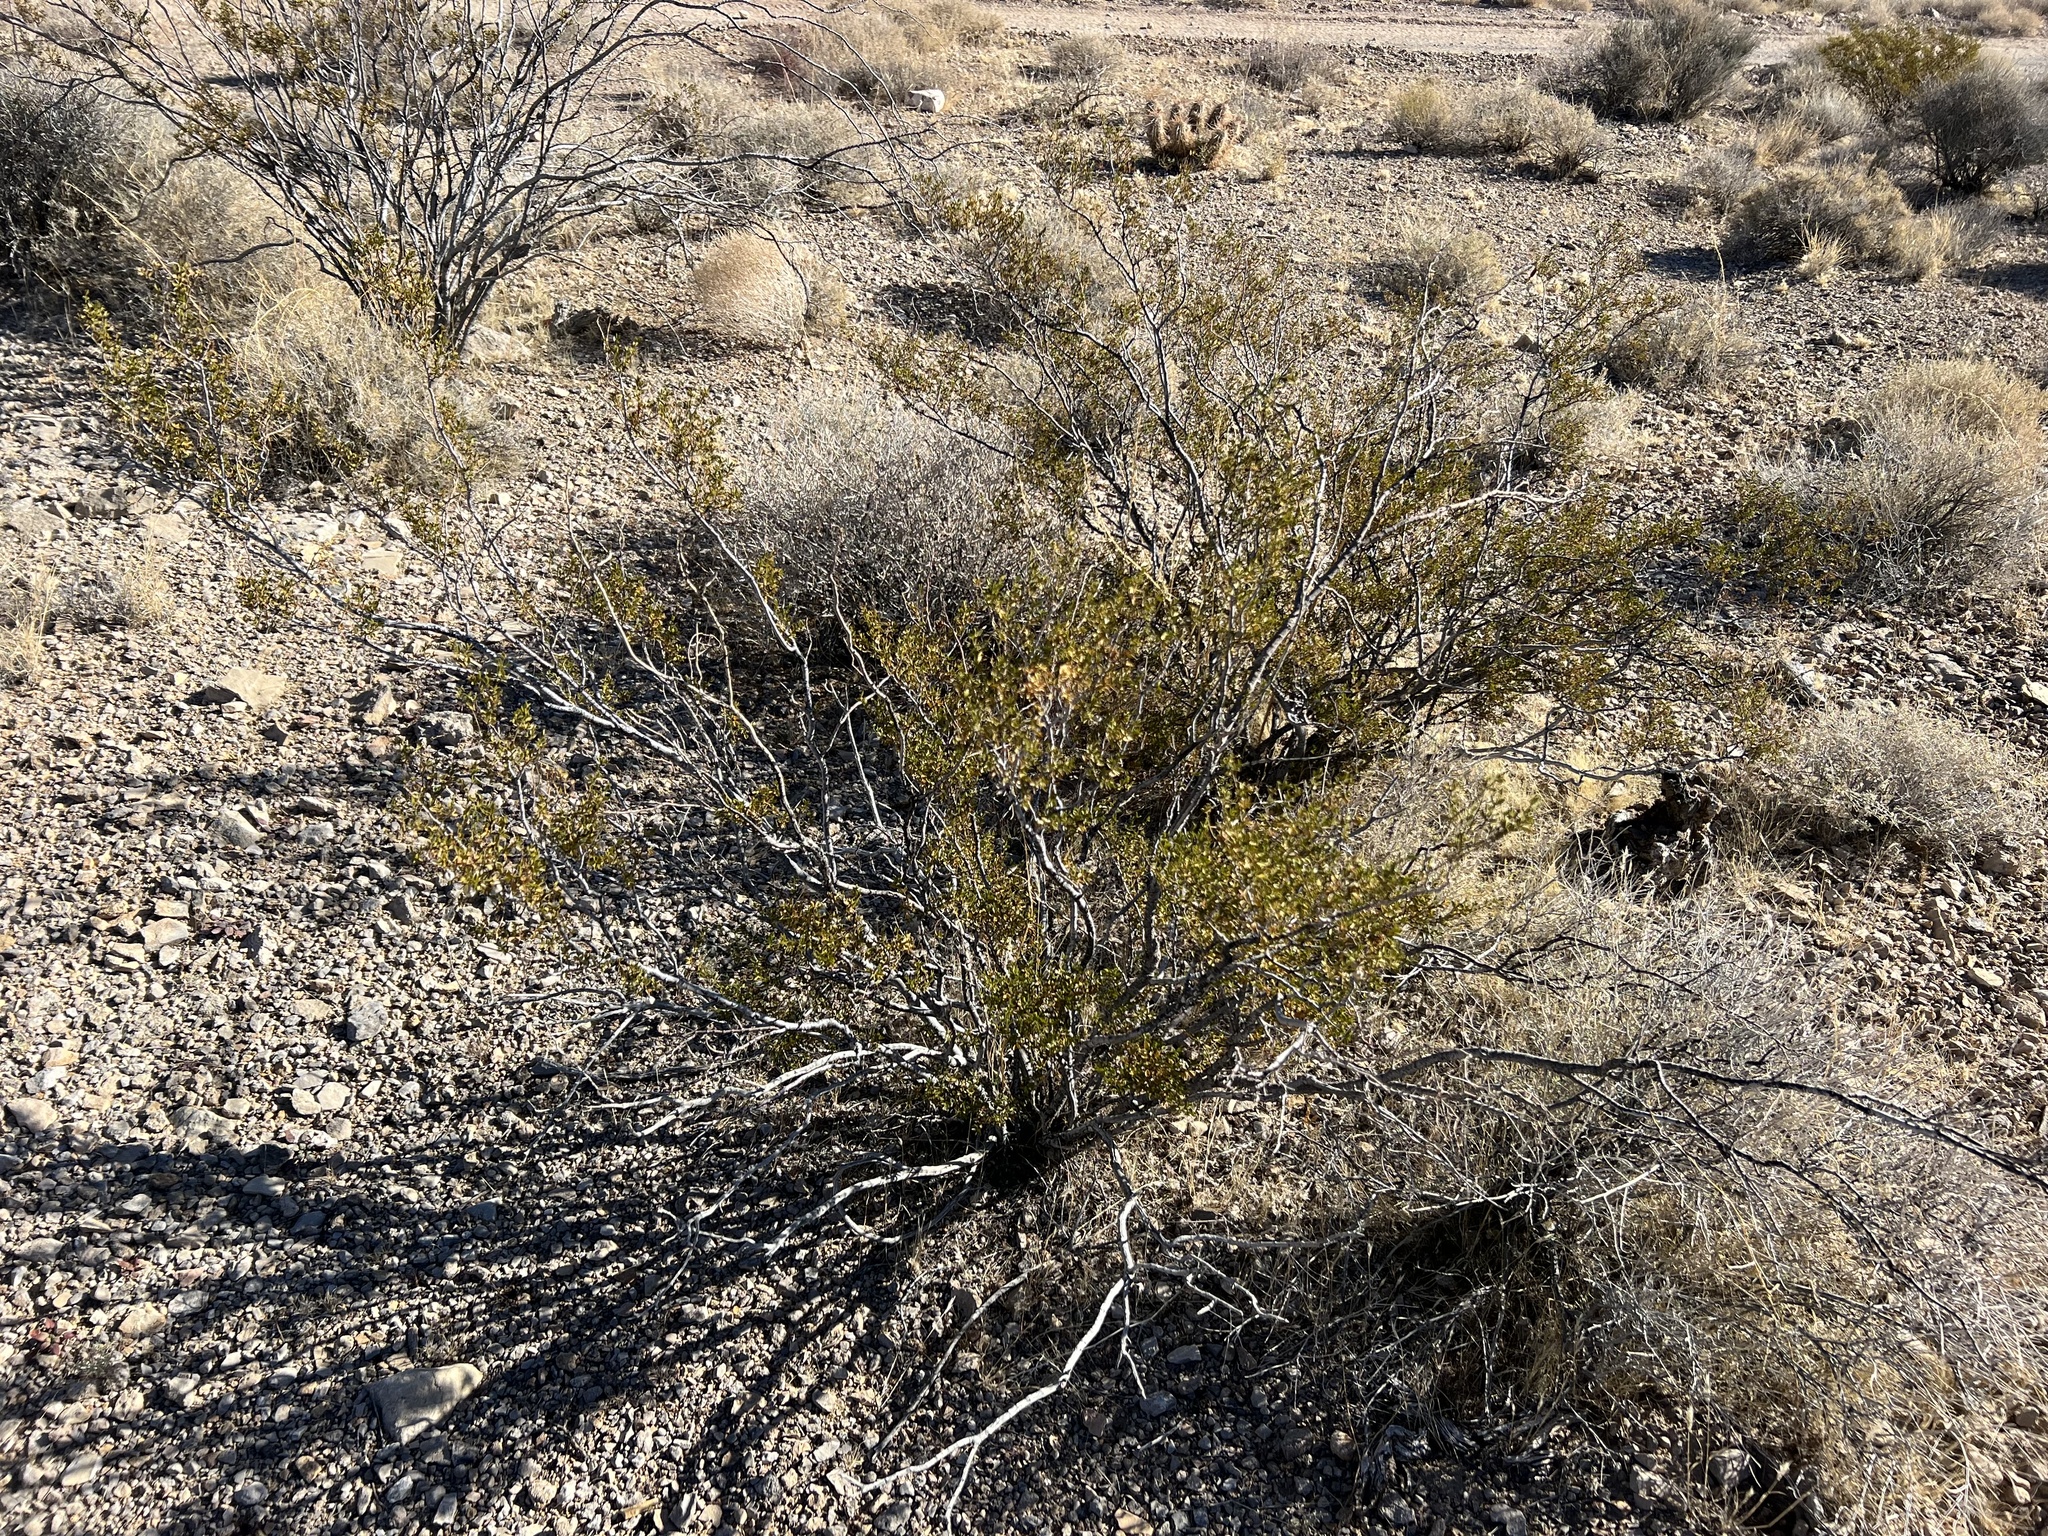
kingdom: Plantae
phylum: Tracheophyta
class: Magnoliopsida
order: Zygophyllales
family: Zygophyllaceae
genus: Larrea
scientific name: Larrea tridentata
